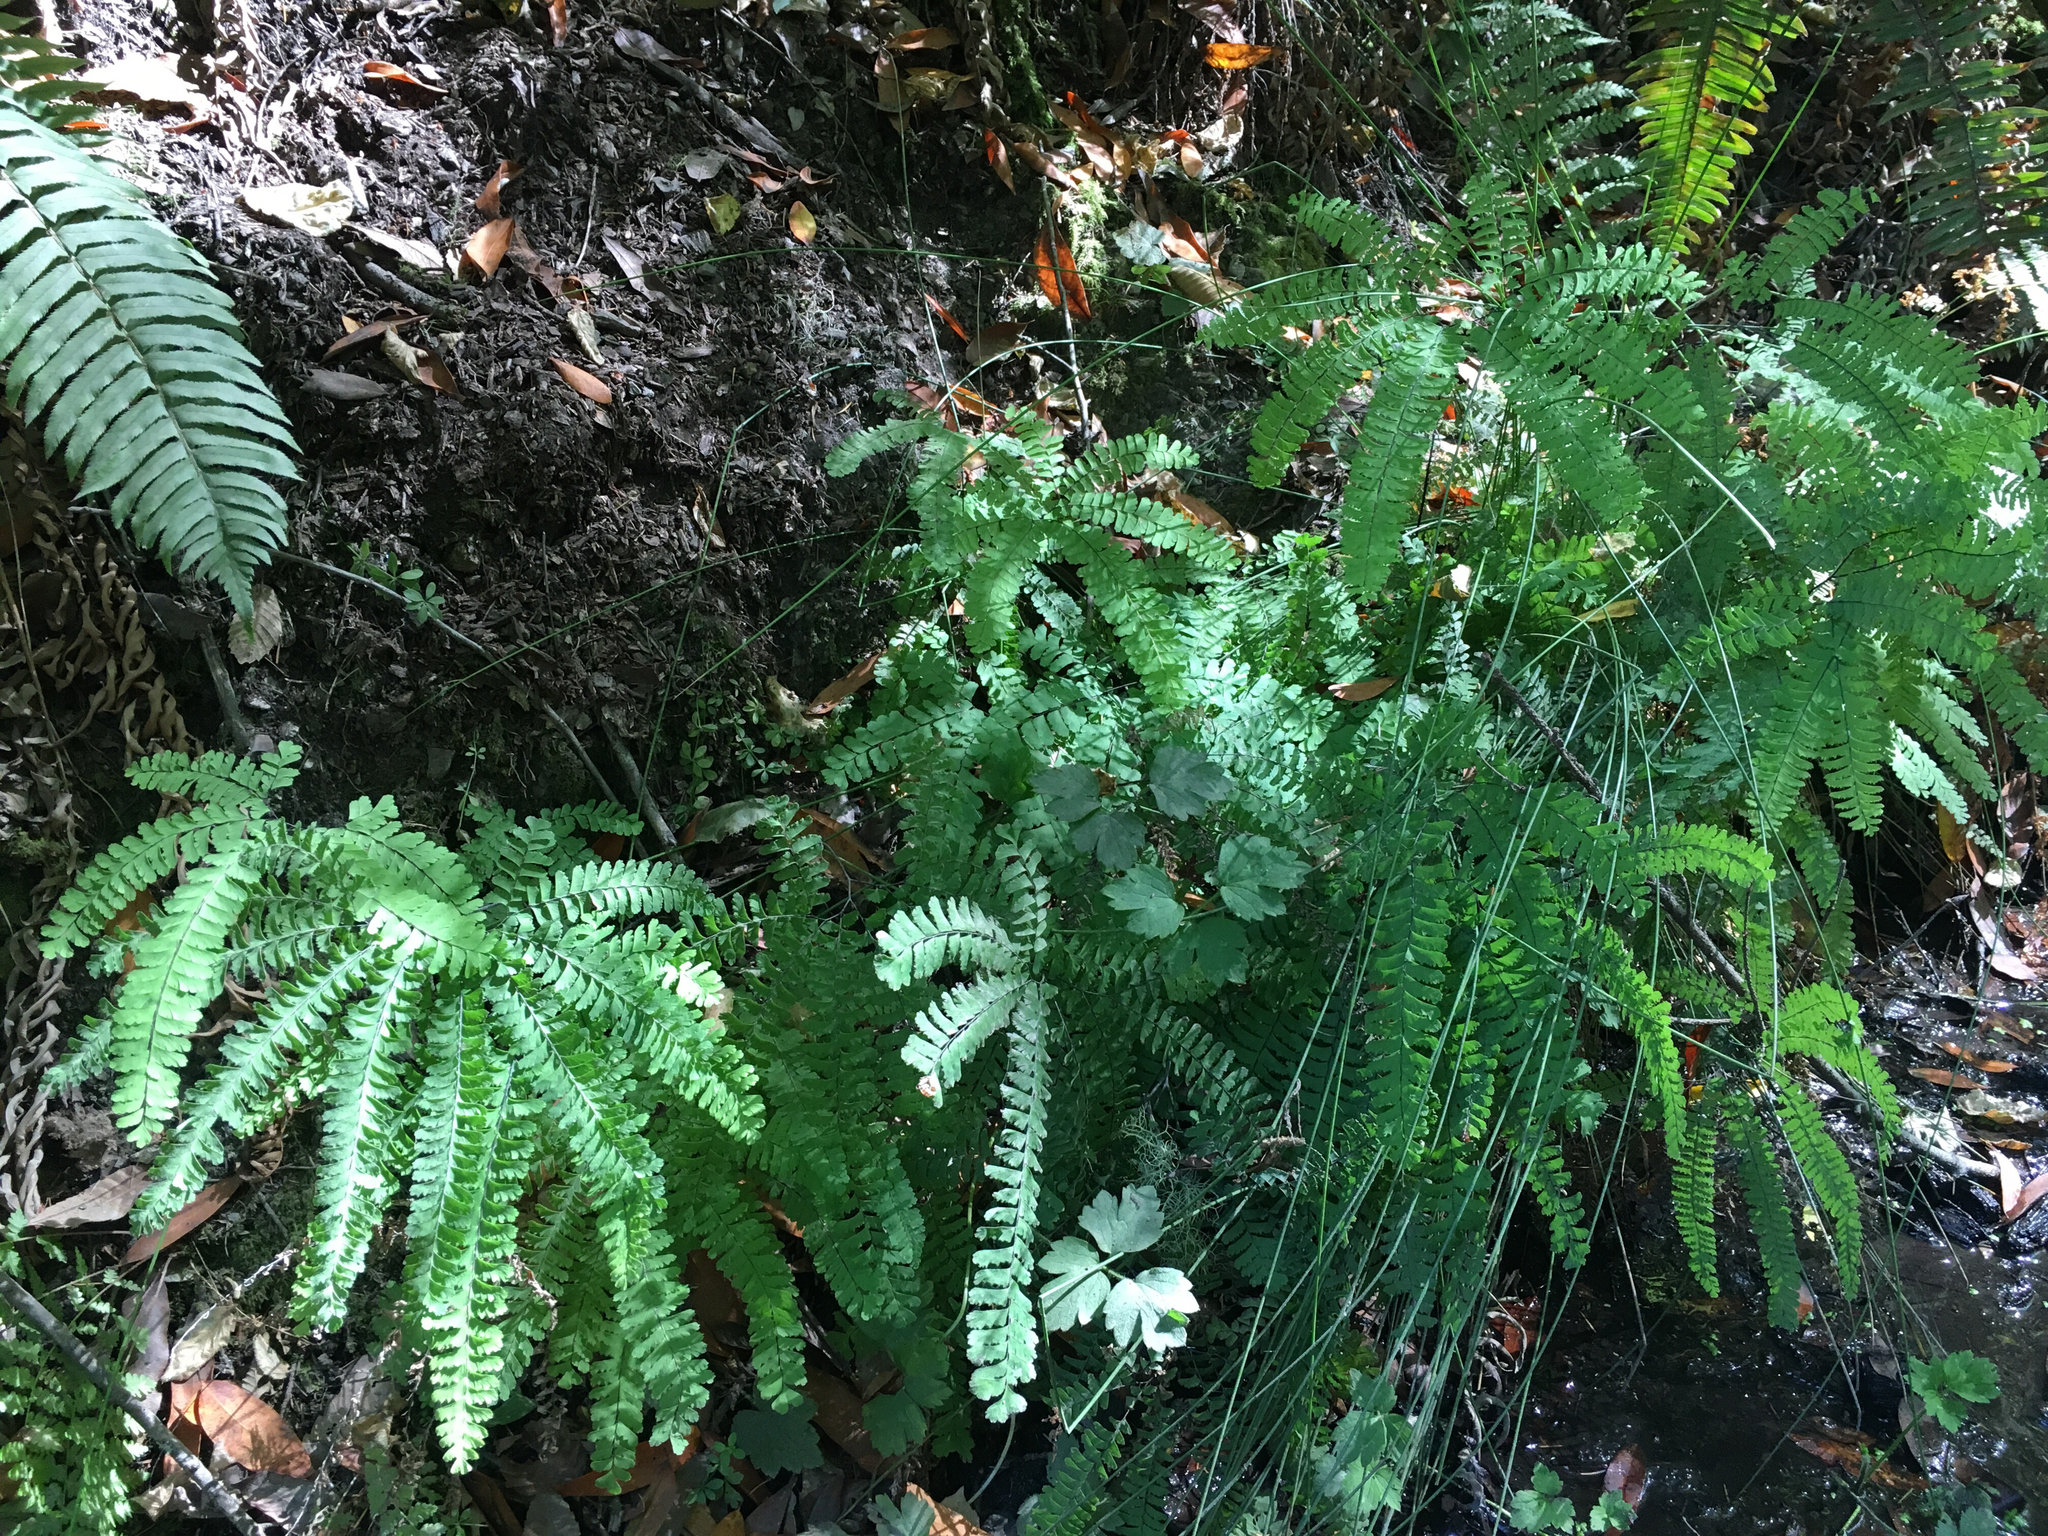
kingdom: Plantae
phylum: Tracheophyta
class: Polypodiopsida
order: Polypodiales
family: Pteridaceae
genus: Adiantum
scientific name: Adiantum aleuticum
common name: Aleutian maidenhair fern
